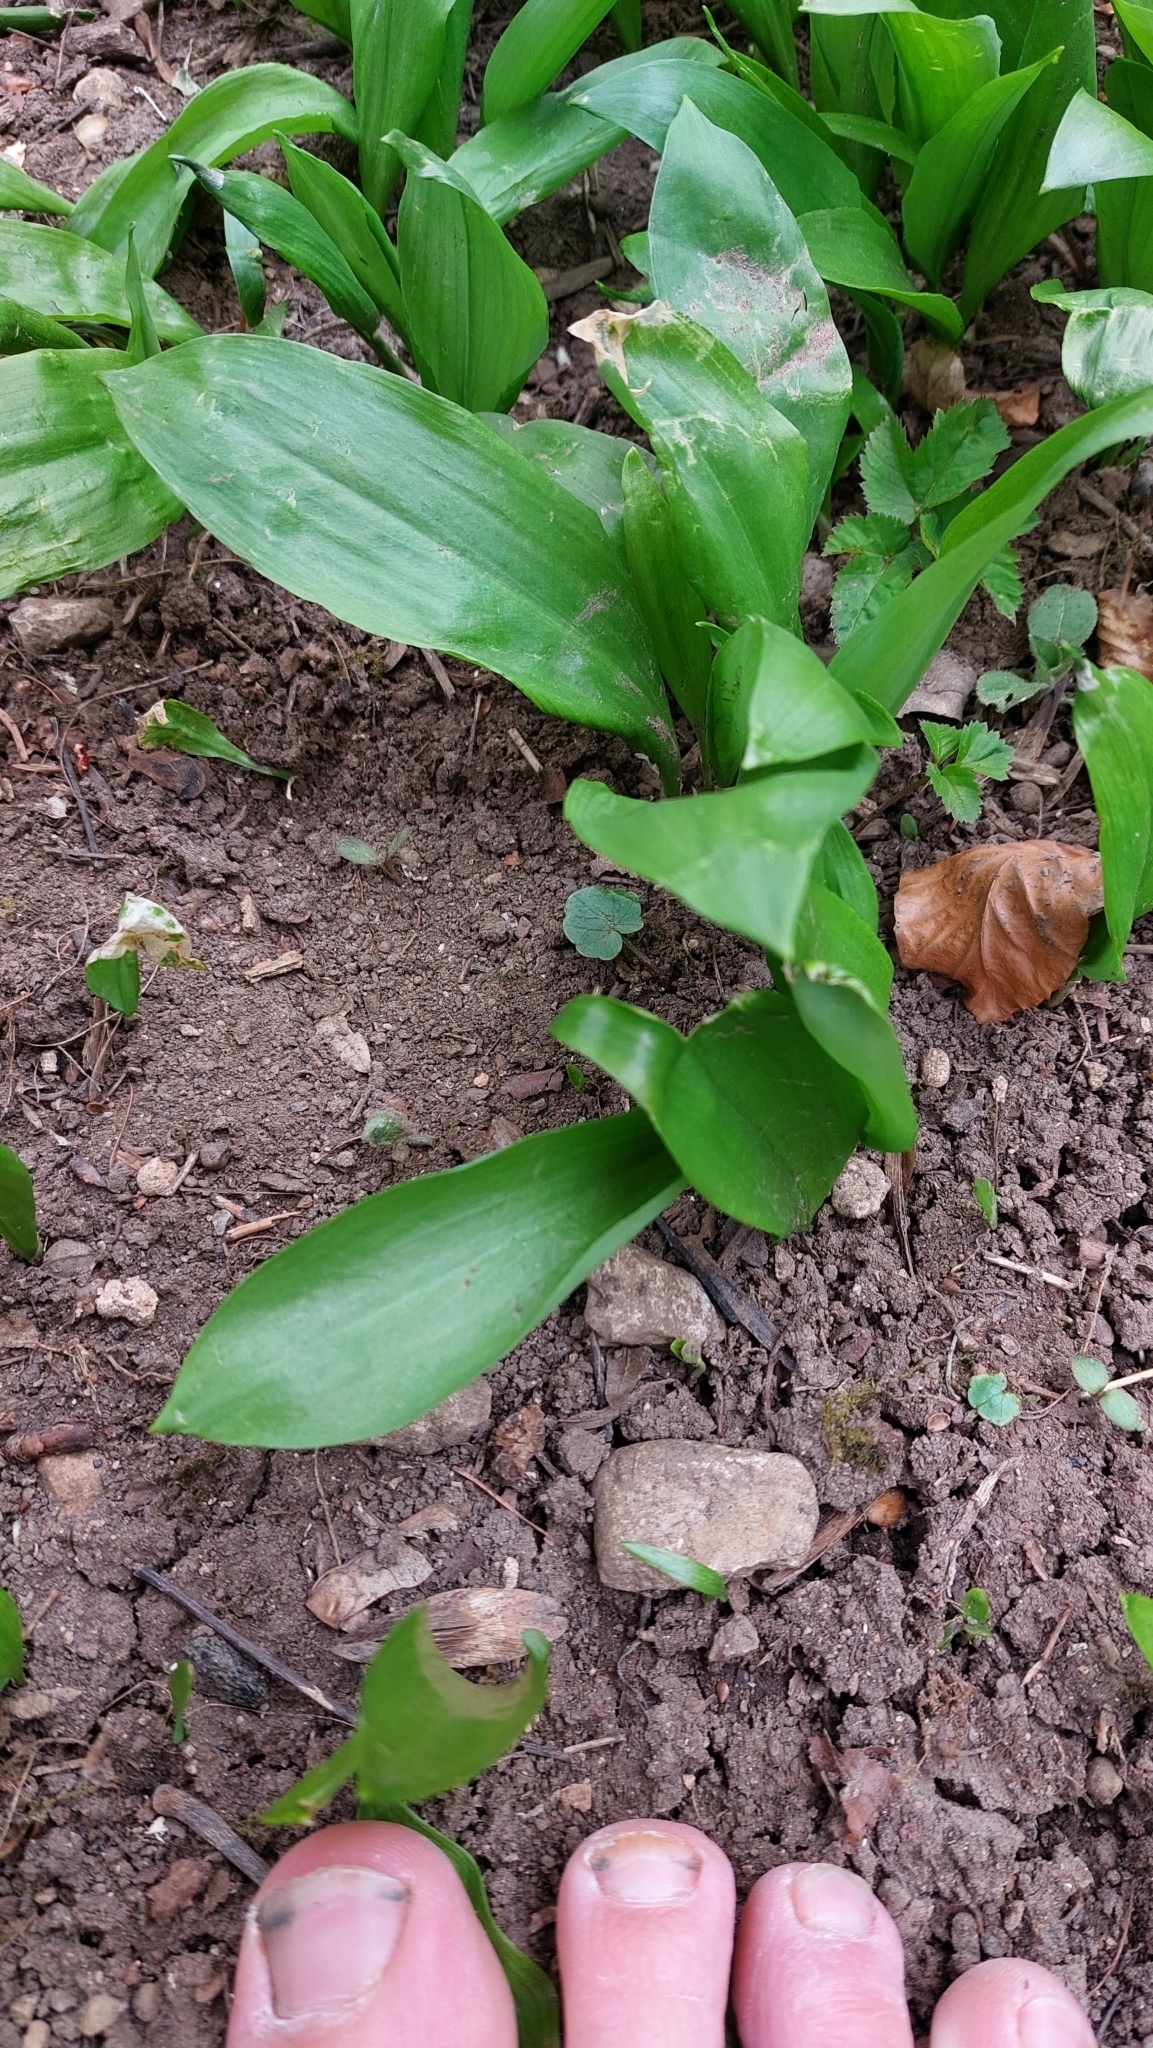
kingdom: Plantae
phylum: Tracheophyta
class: Liliopsida
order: Asparagales
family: Amaryllidaceae
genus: Allium
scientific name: Allium ursinum
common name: Ramsons
